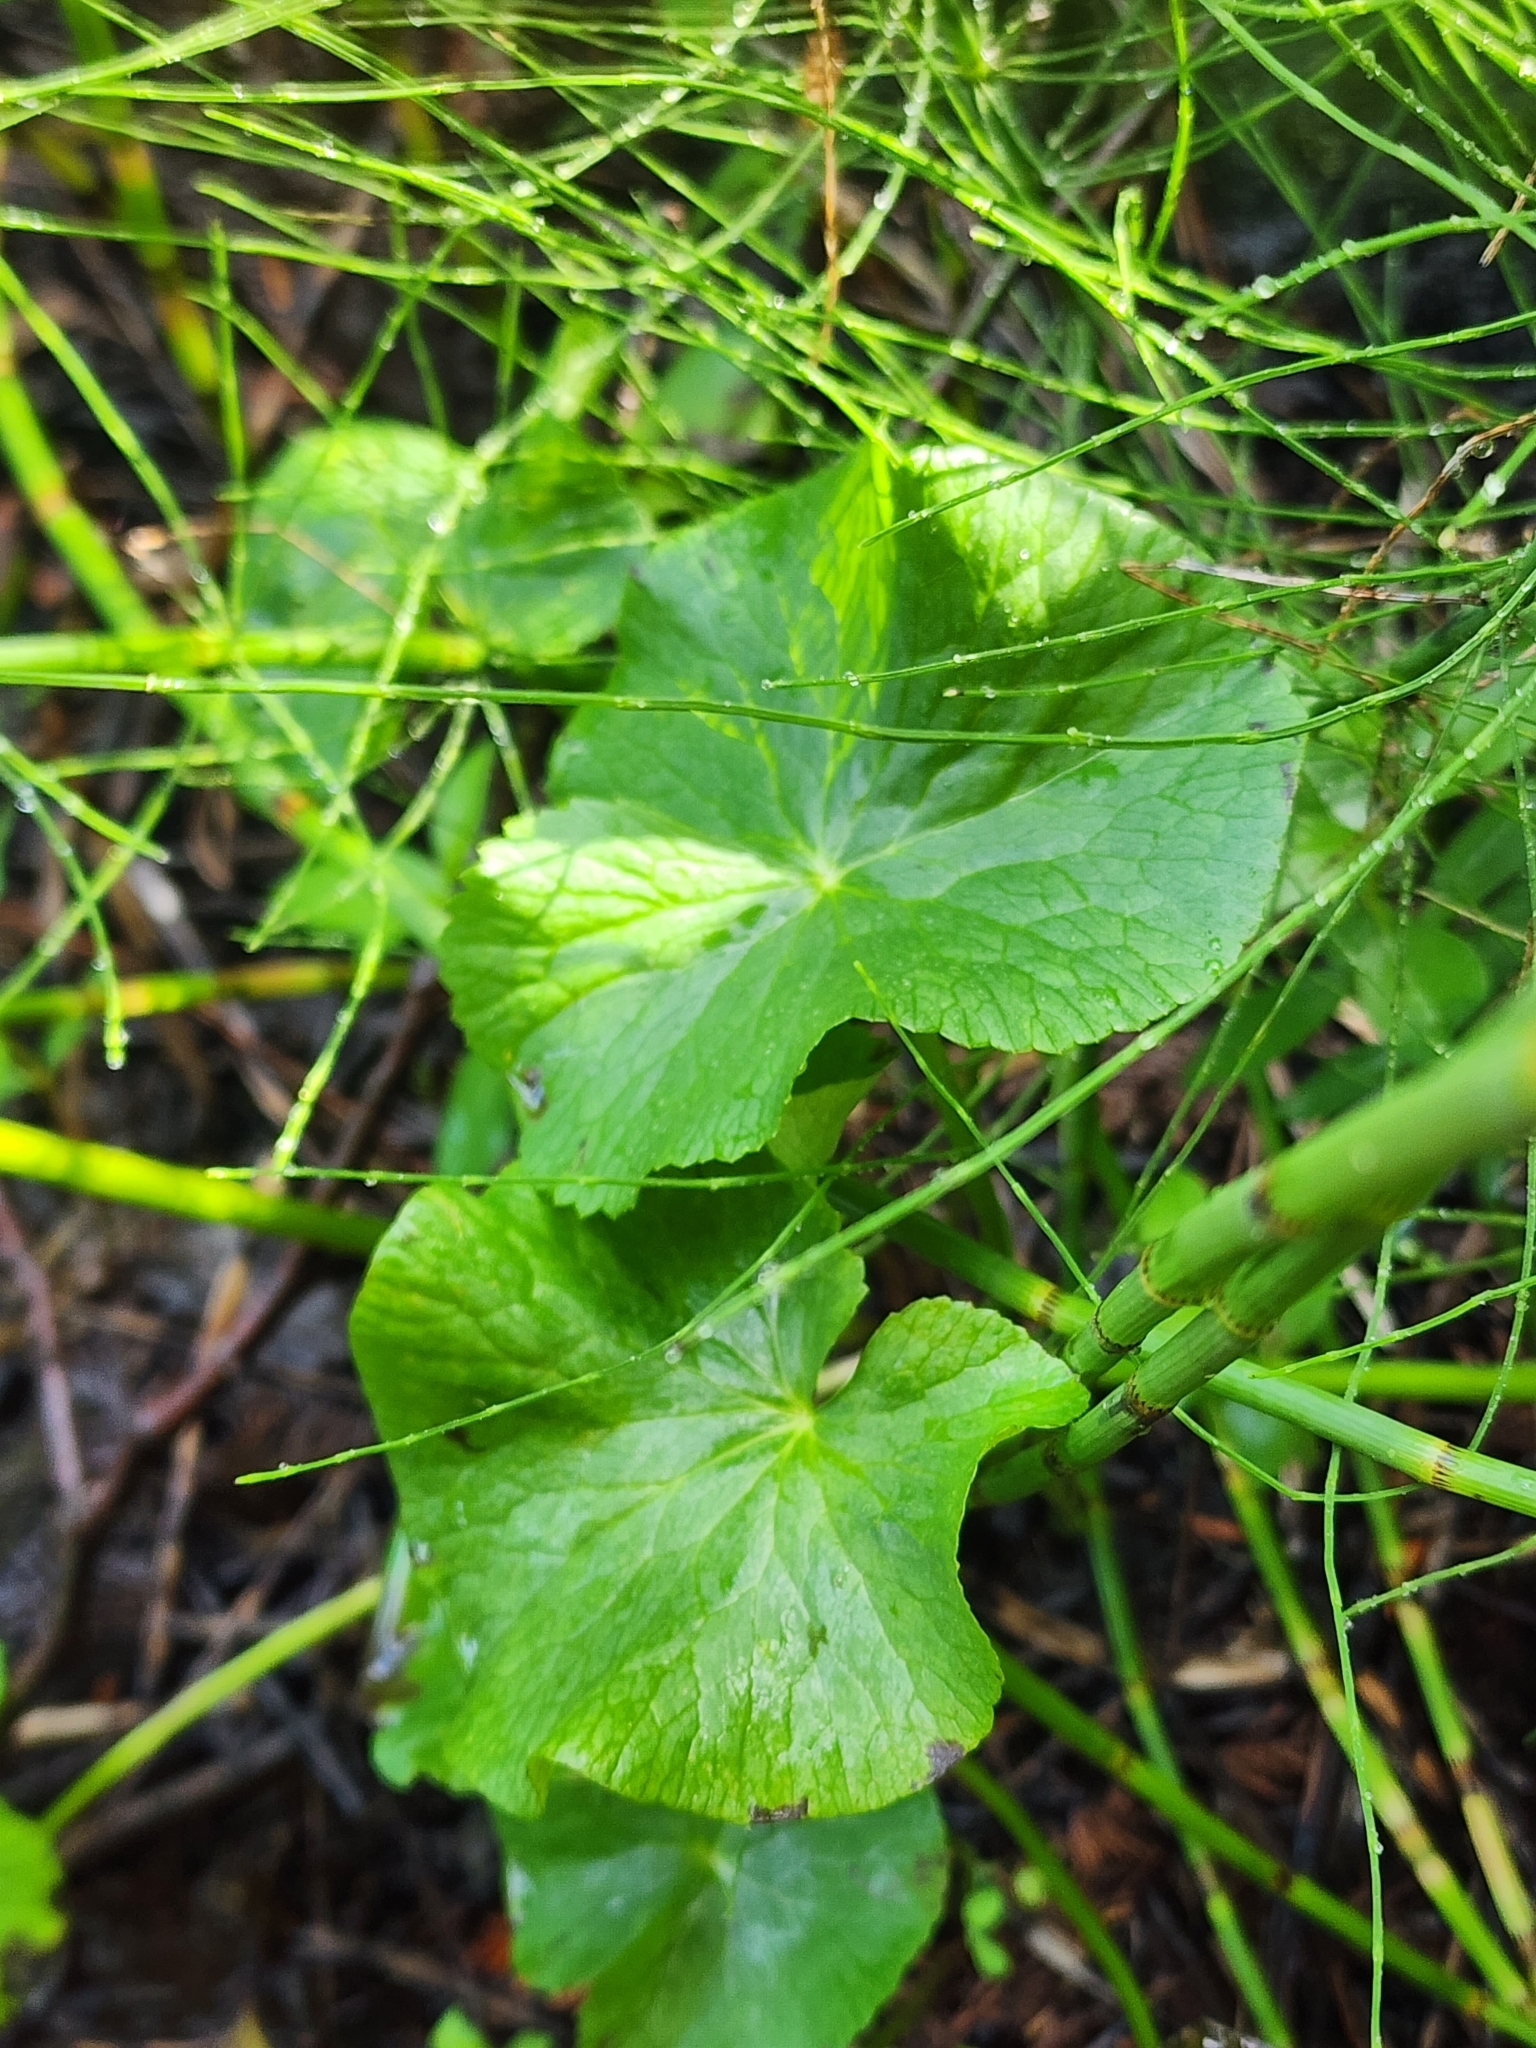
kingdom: Plantae
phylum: Tracheophyta
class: Magnoliopsida
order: Ranunculales
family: Ranunculaceae
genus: Caltha
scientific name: Caltha palustris
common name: Marsh marigold
